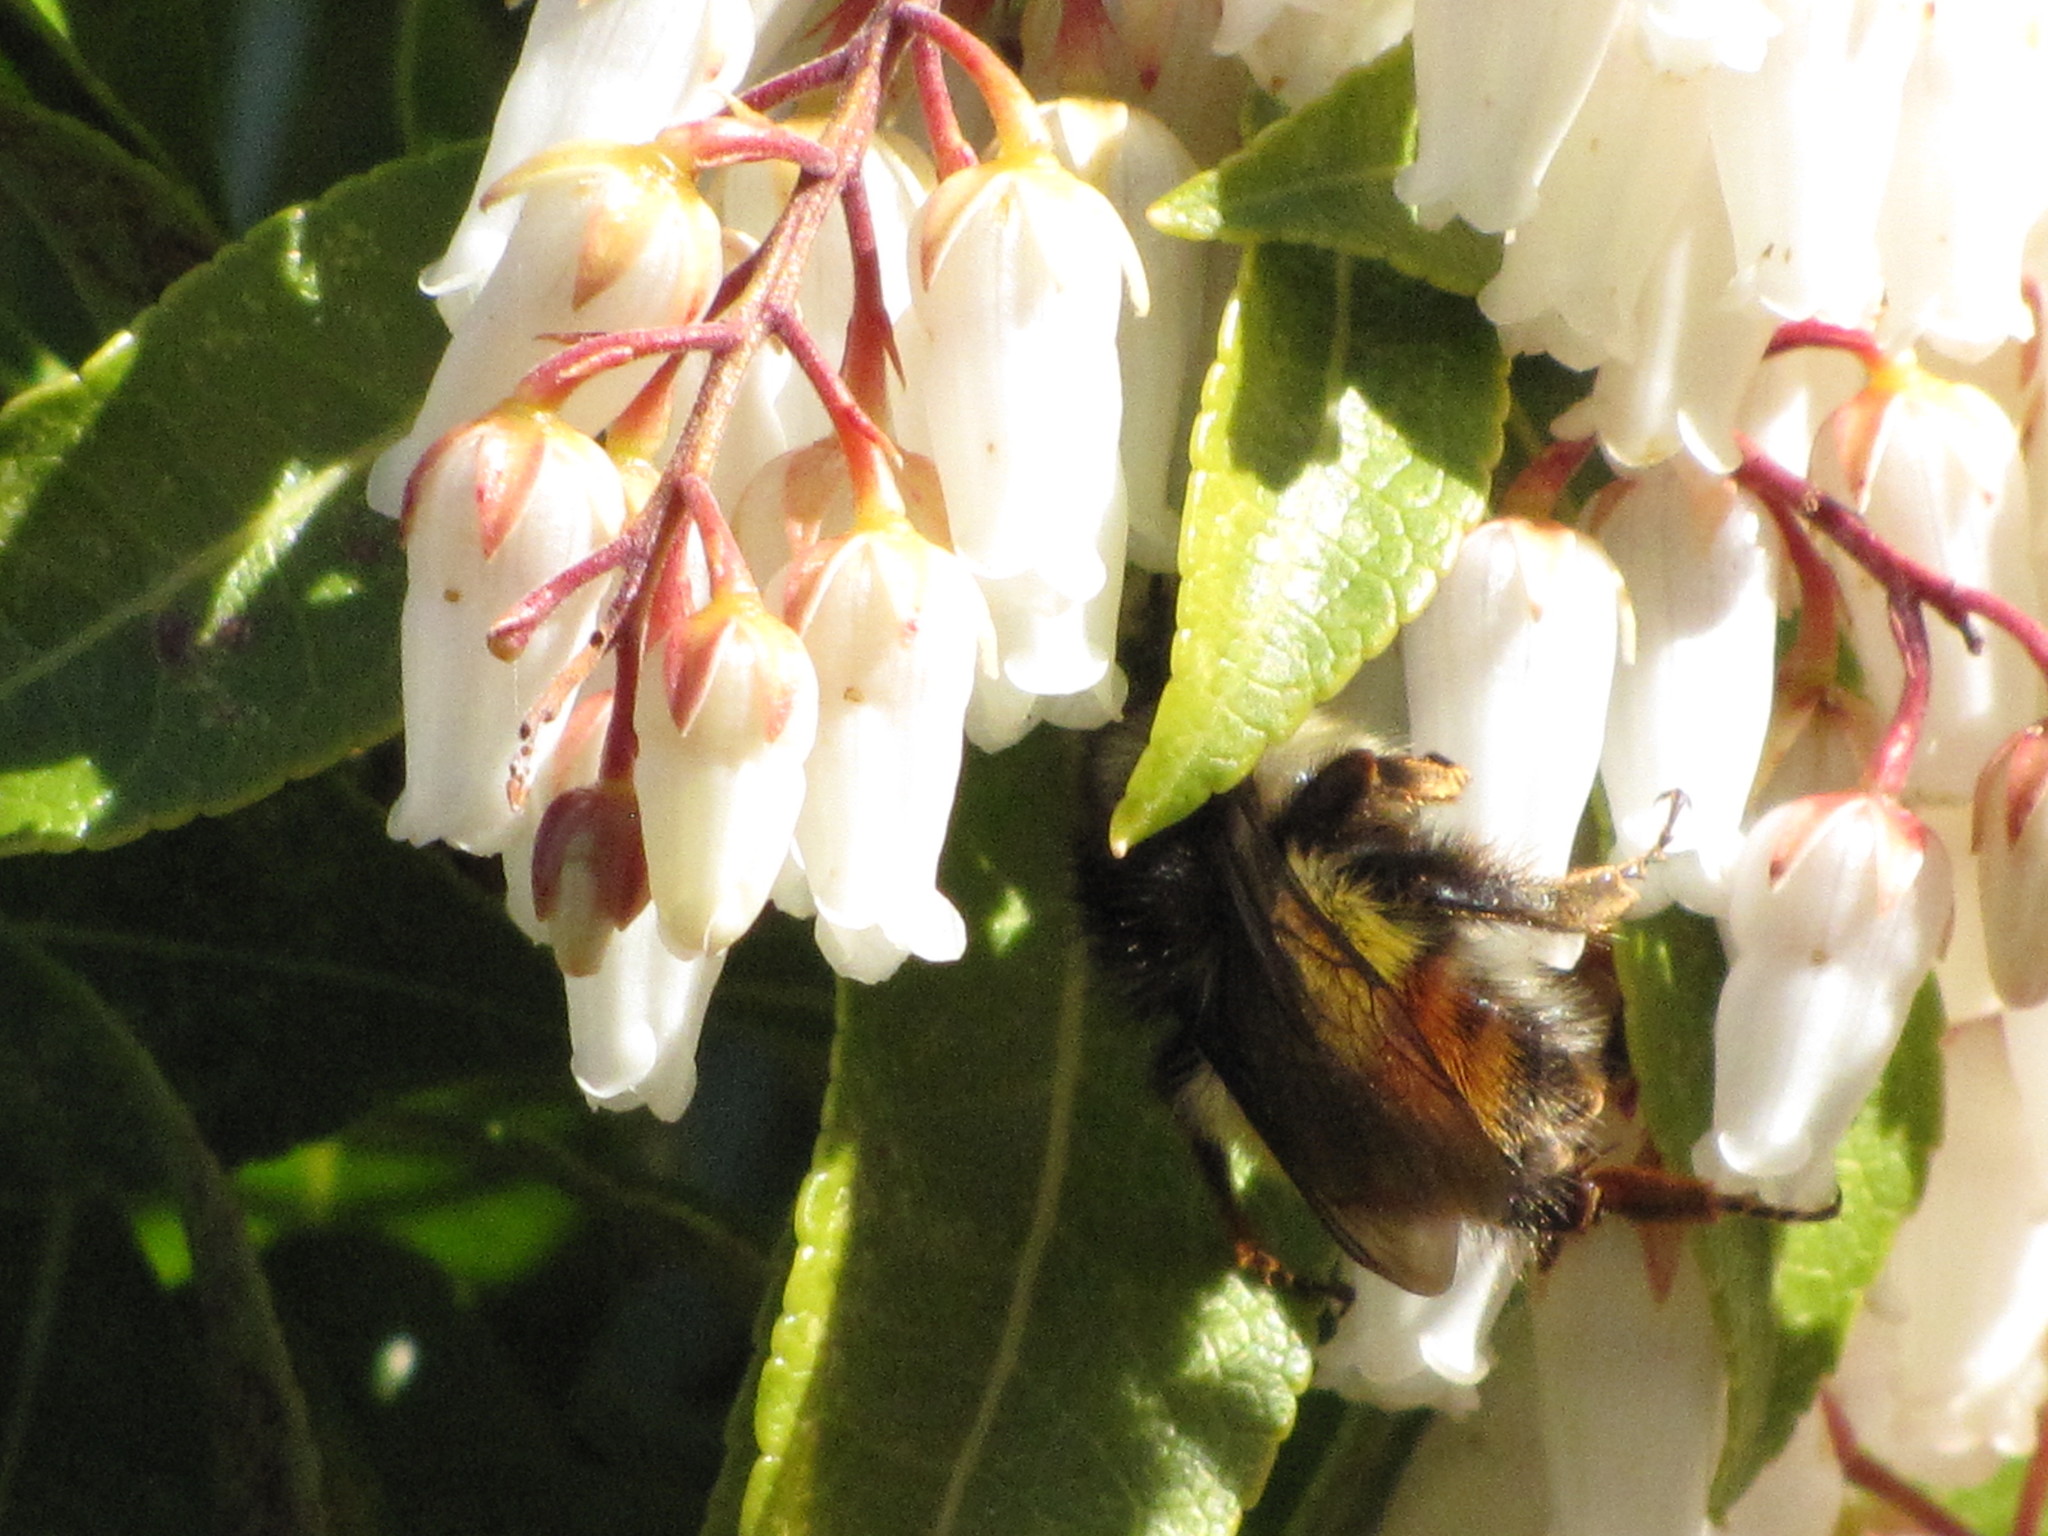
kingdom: Animalia
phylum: Arthropoda
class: Insecta
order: Hymenoptera
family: Apidae
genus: Bombus
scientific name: Bombus flavifrons
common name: Yellow head bumble bee
